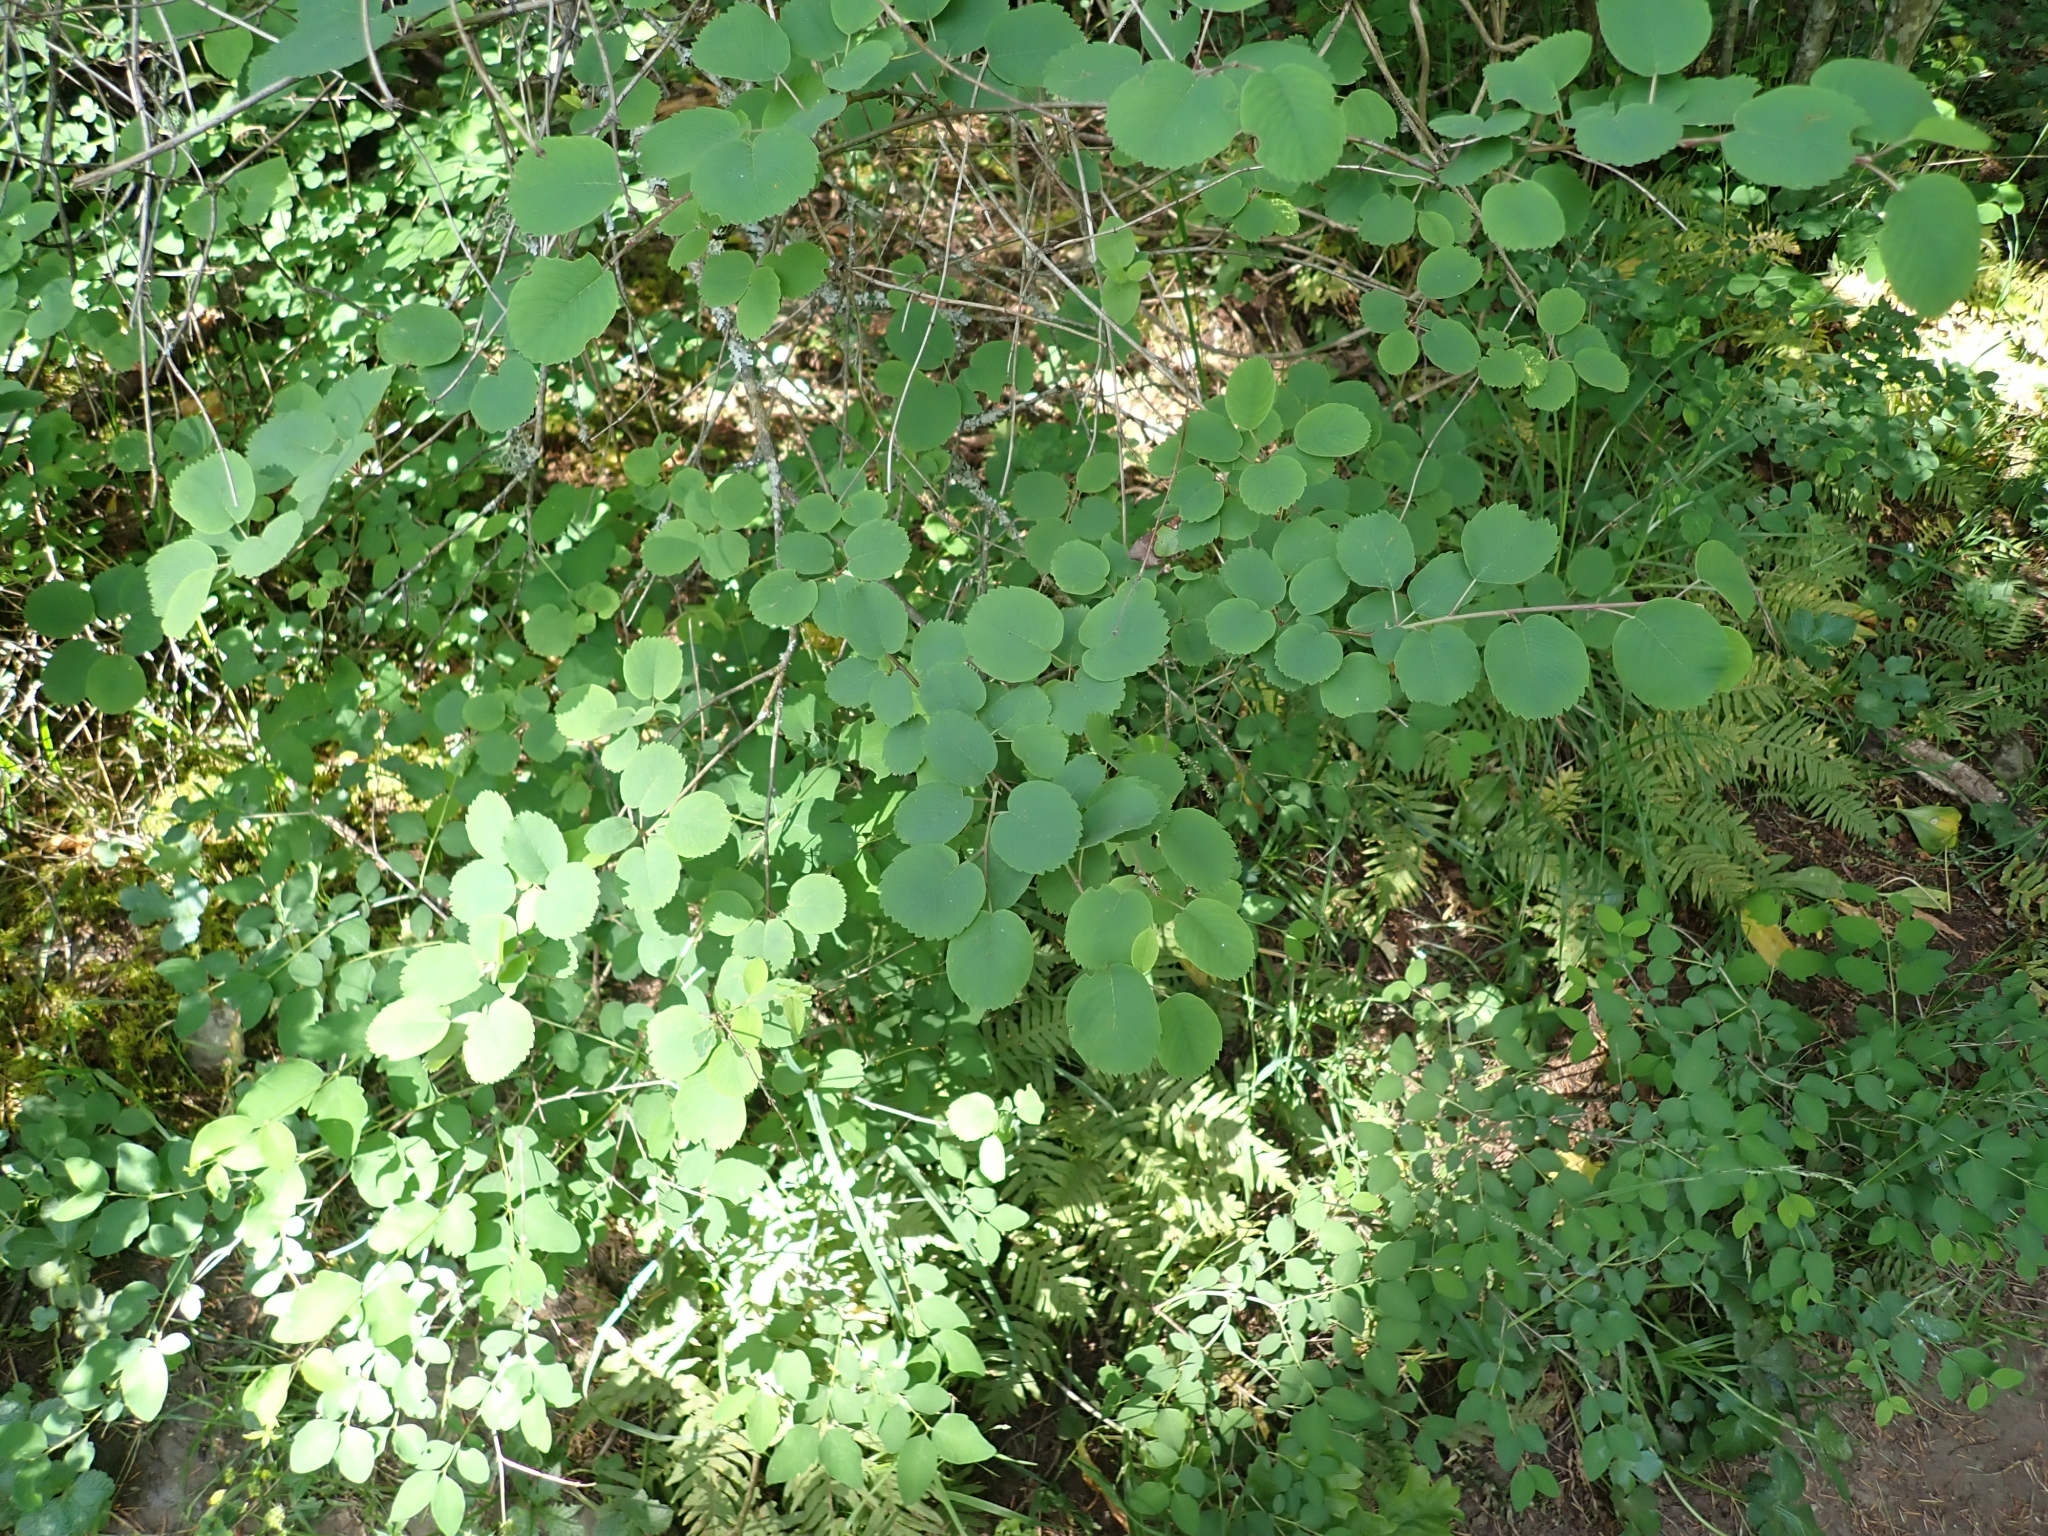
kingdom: Plantae
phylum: Tracheophyta
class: Magnoliopsida
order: Rosales
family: Rosaceae
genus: Amelanchier
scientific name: Amelanchier alnifolia
